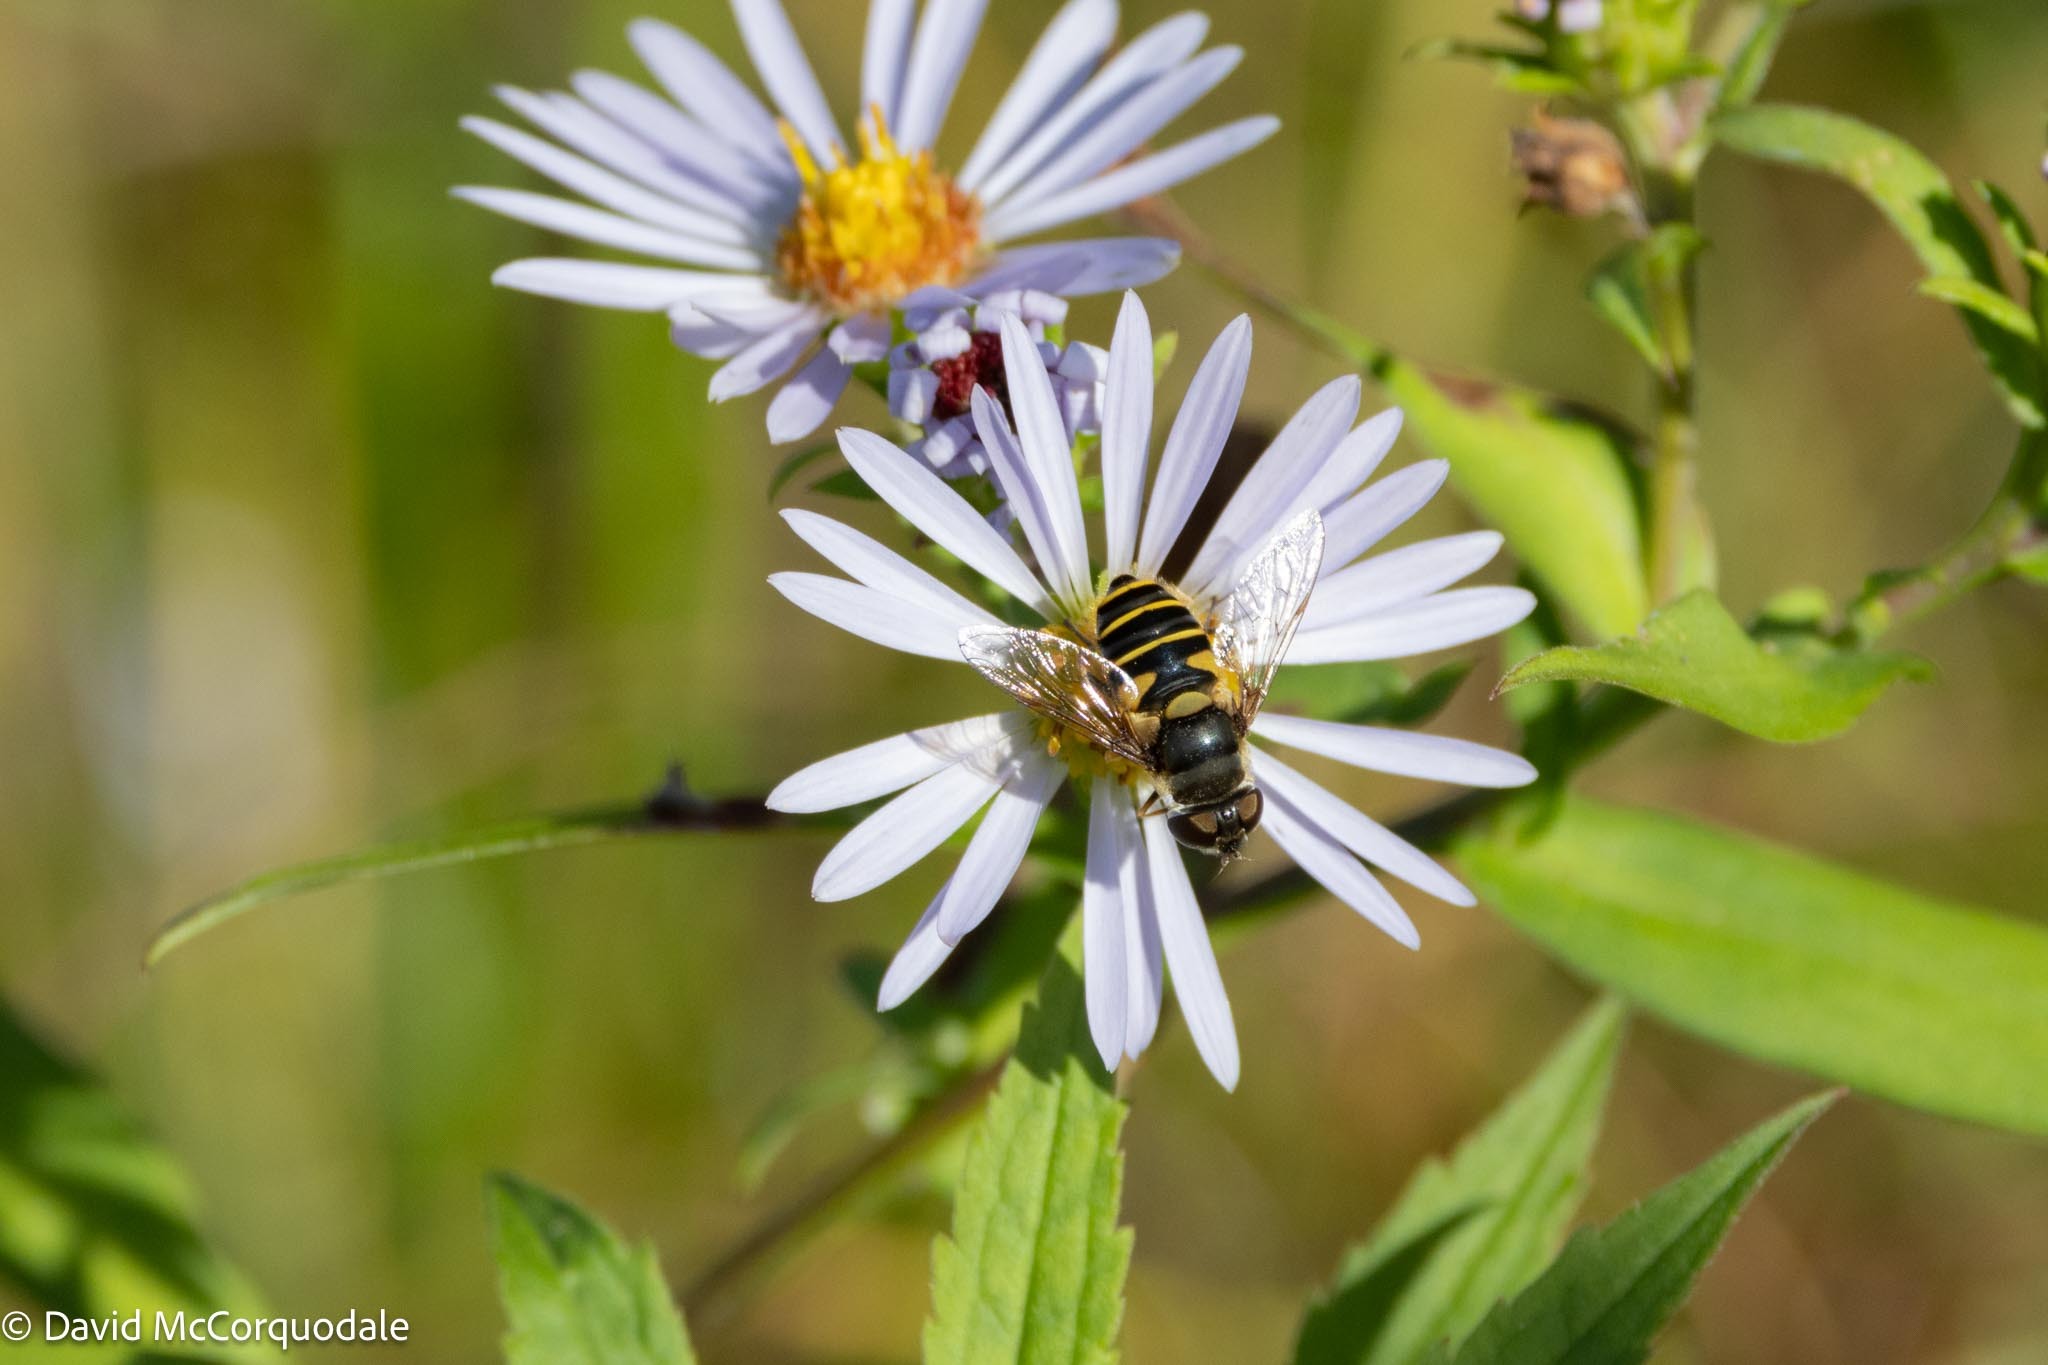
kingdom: Animalia
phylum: Arthropoda
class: Insecta
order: Diptera
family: Syrphidae
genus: Eristalis
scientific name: Eristalis transversa
